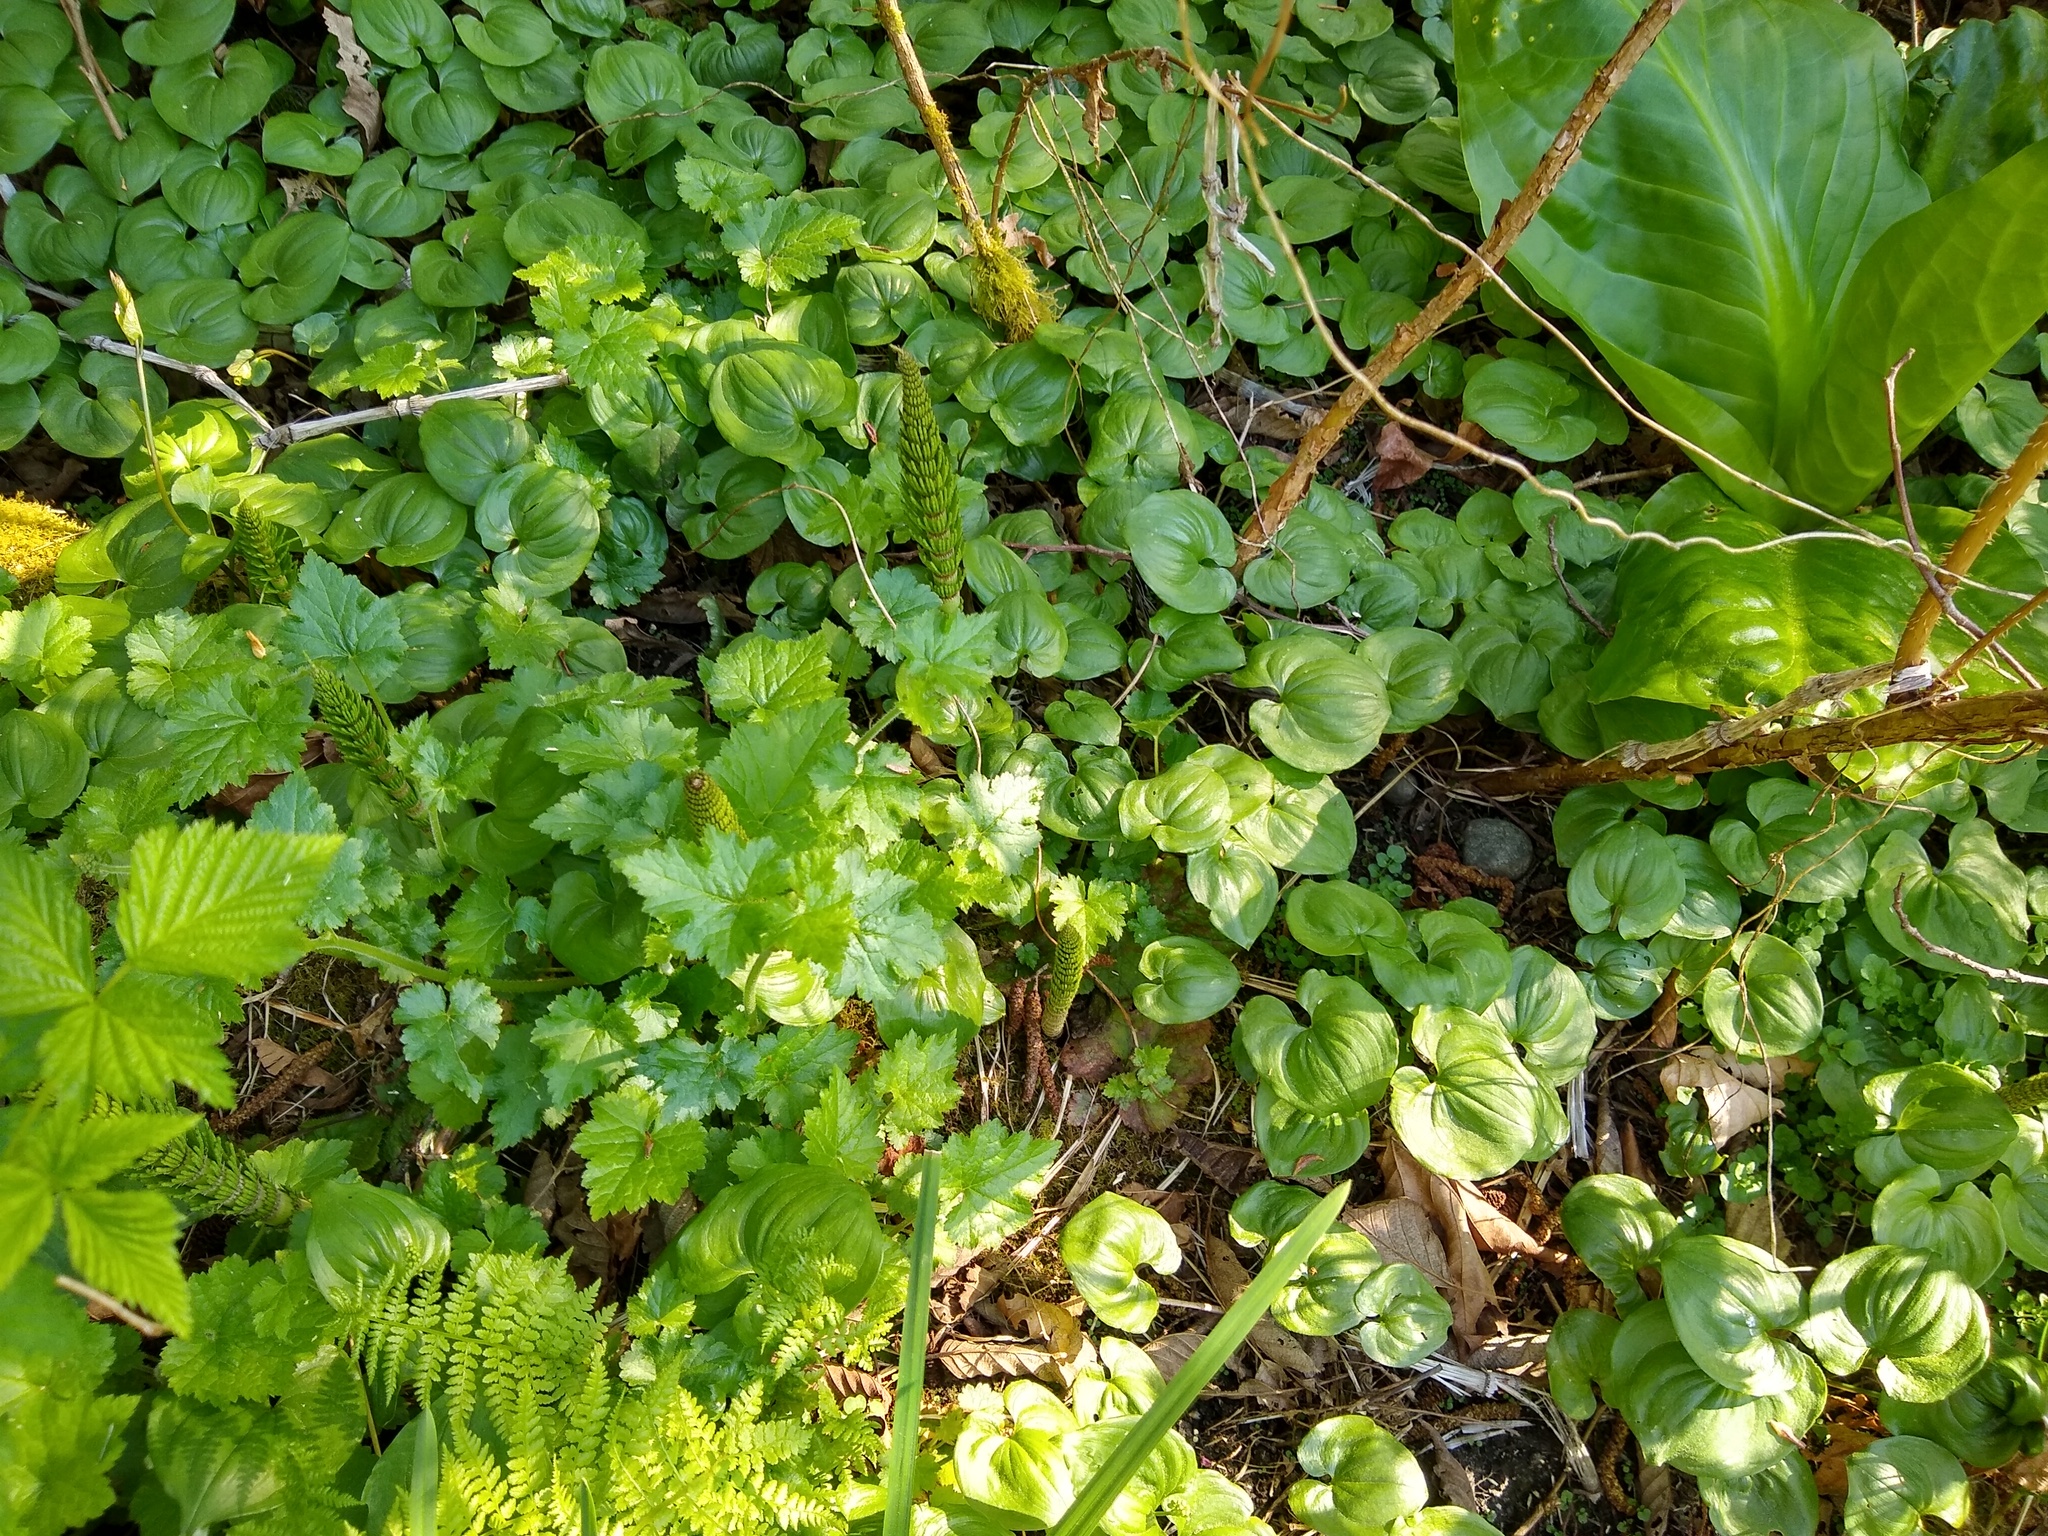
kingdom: Plantae
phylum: Tracheophyta
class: Liliopsida
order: Asparagales
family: Asparagaceae
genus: Maianthemum
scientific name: Maianthemum dilatatum
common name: False lily-of-the-valley
